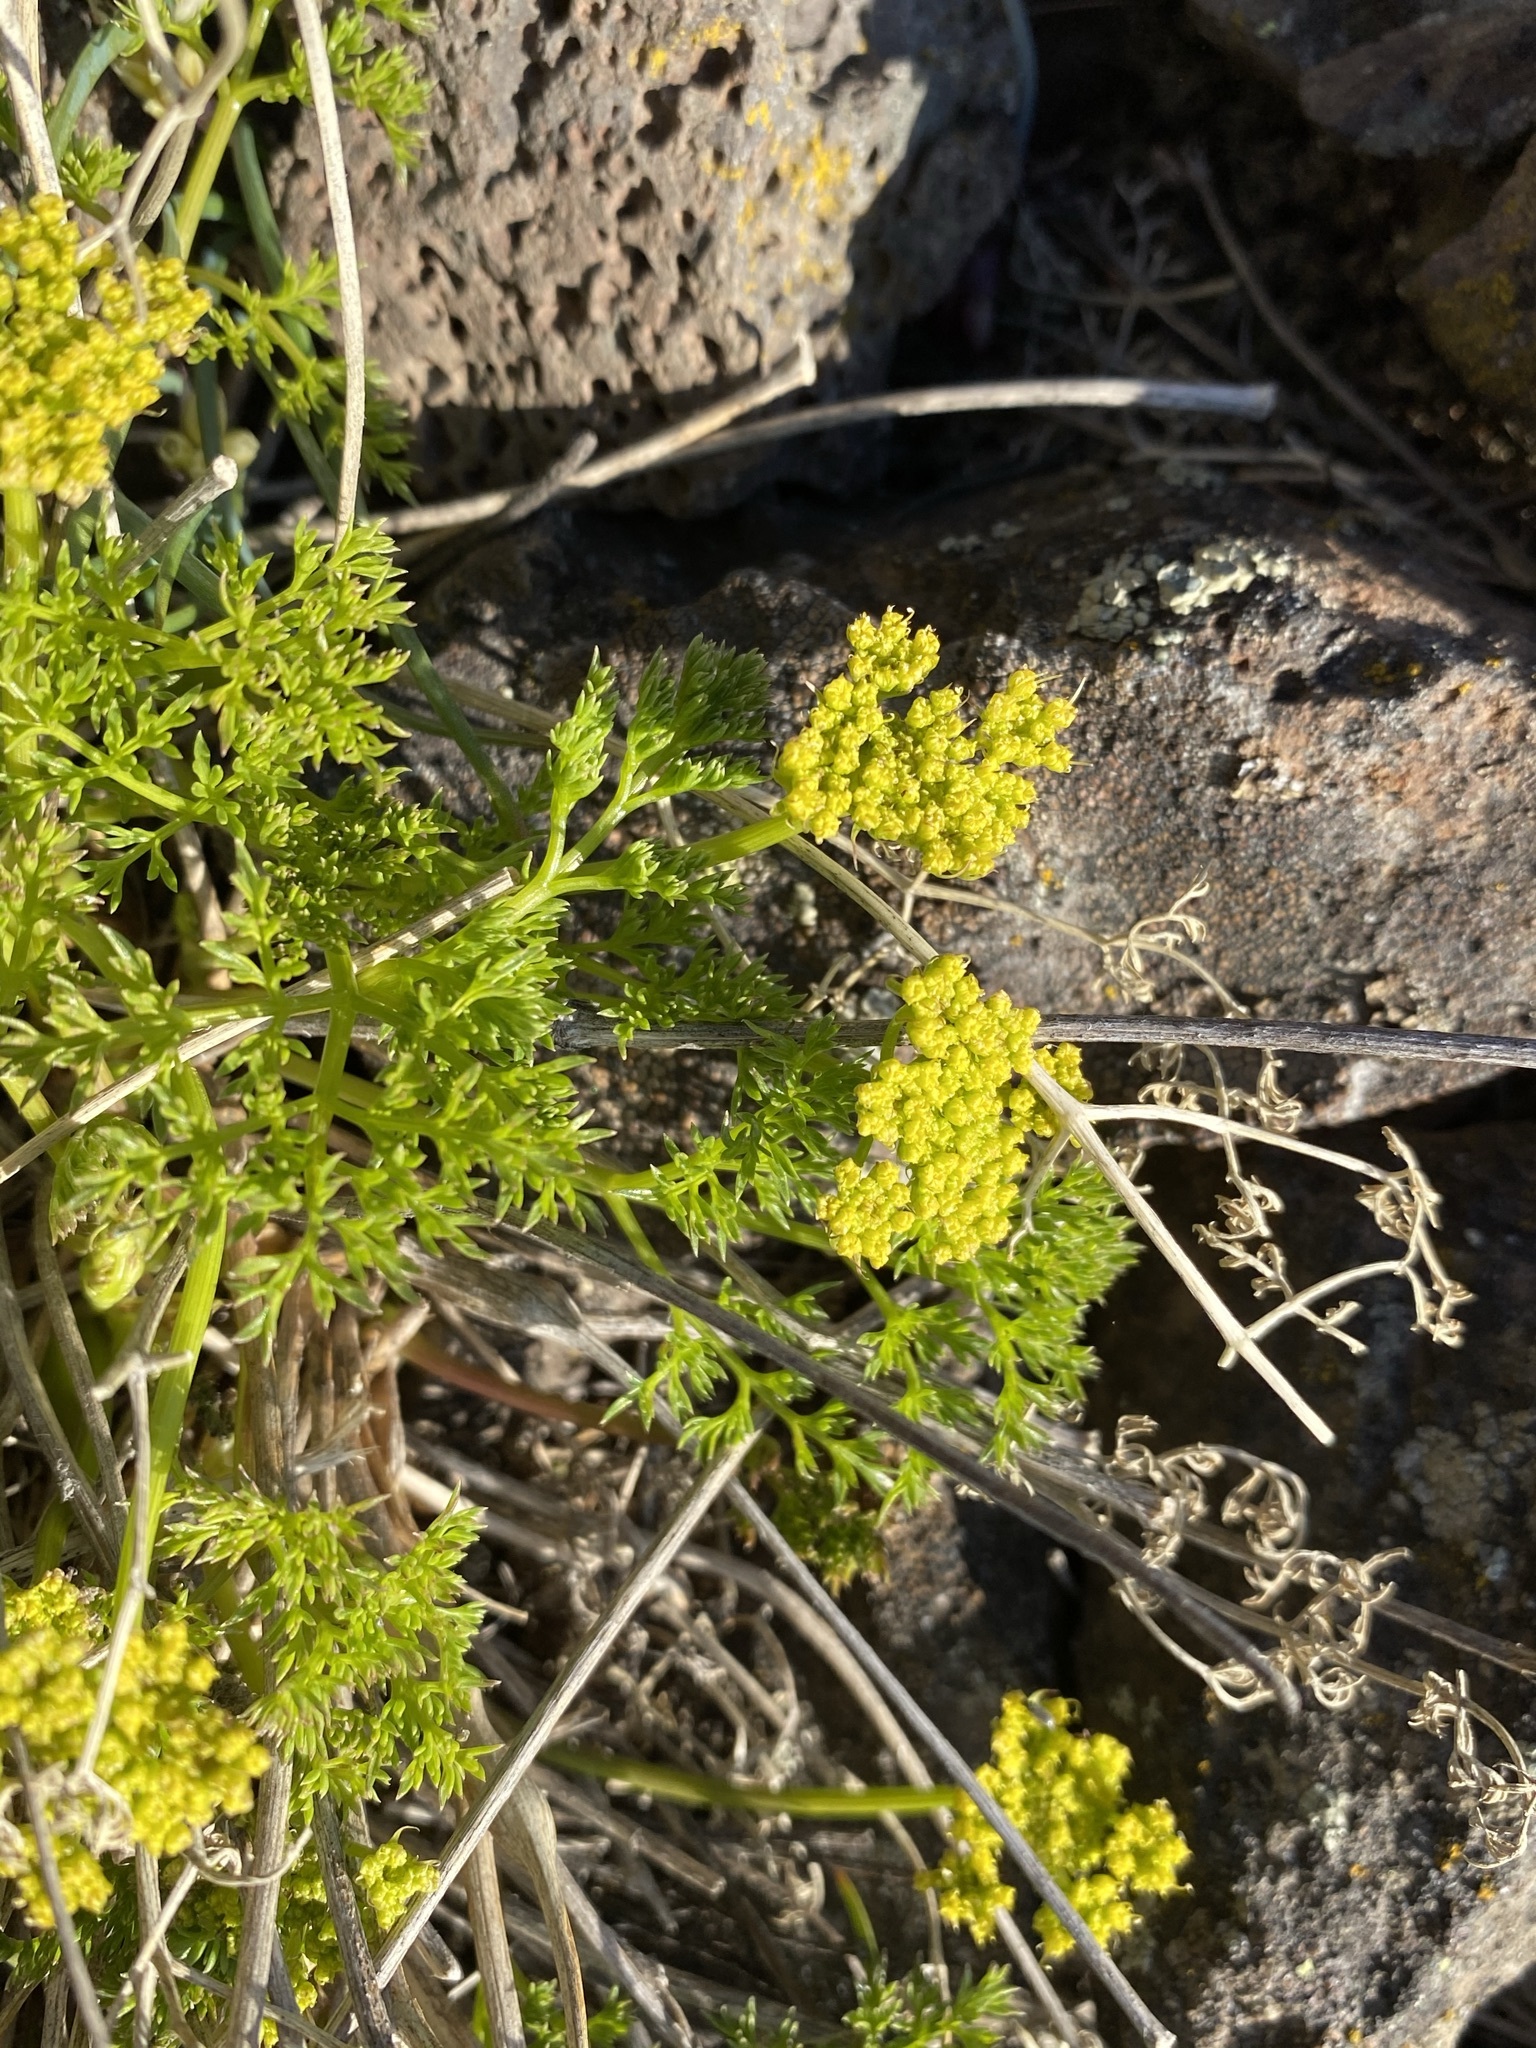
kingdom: Plantae
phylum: Tracheophyta
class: Magnoliopsida
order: Apiales
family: Apiaceae
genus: Pteryxia
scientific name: Pteryxia terebinthina
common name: Turpentine wavewing
